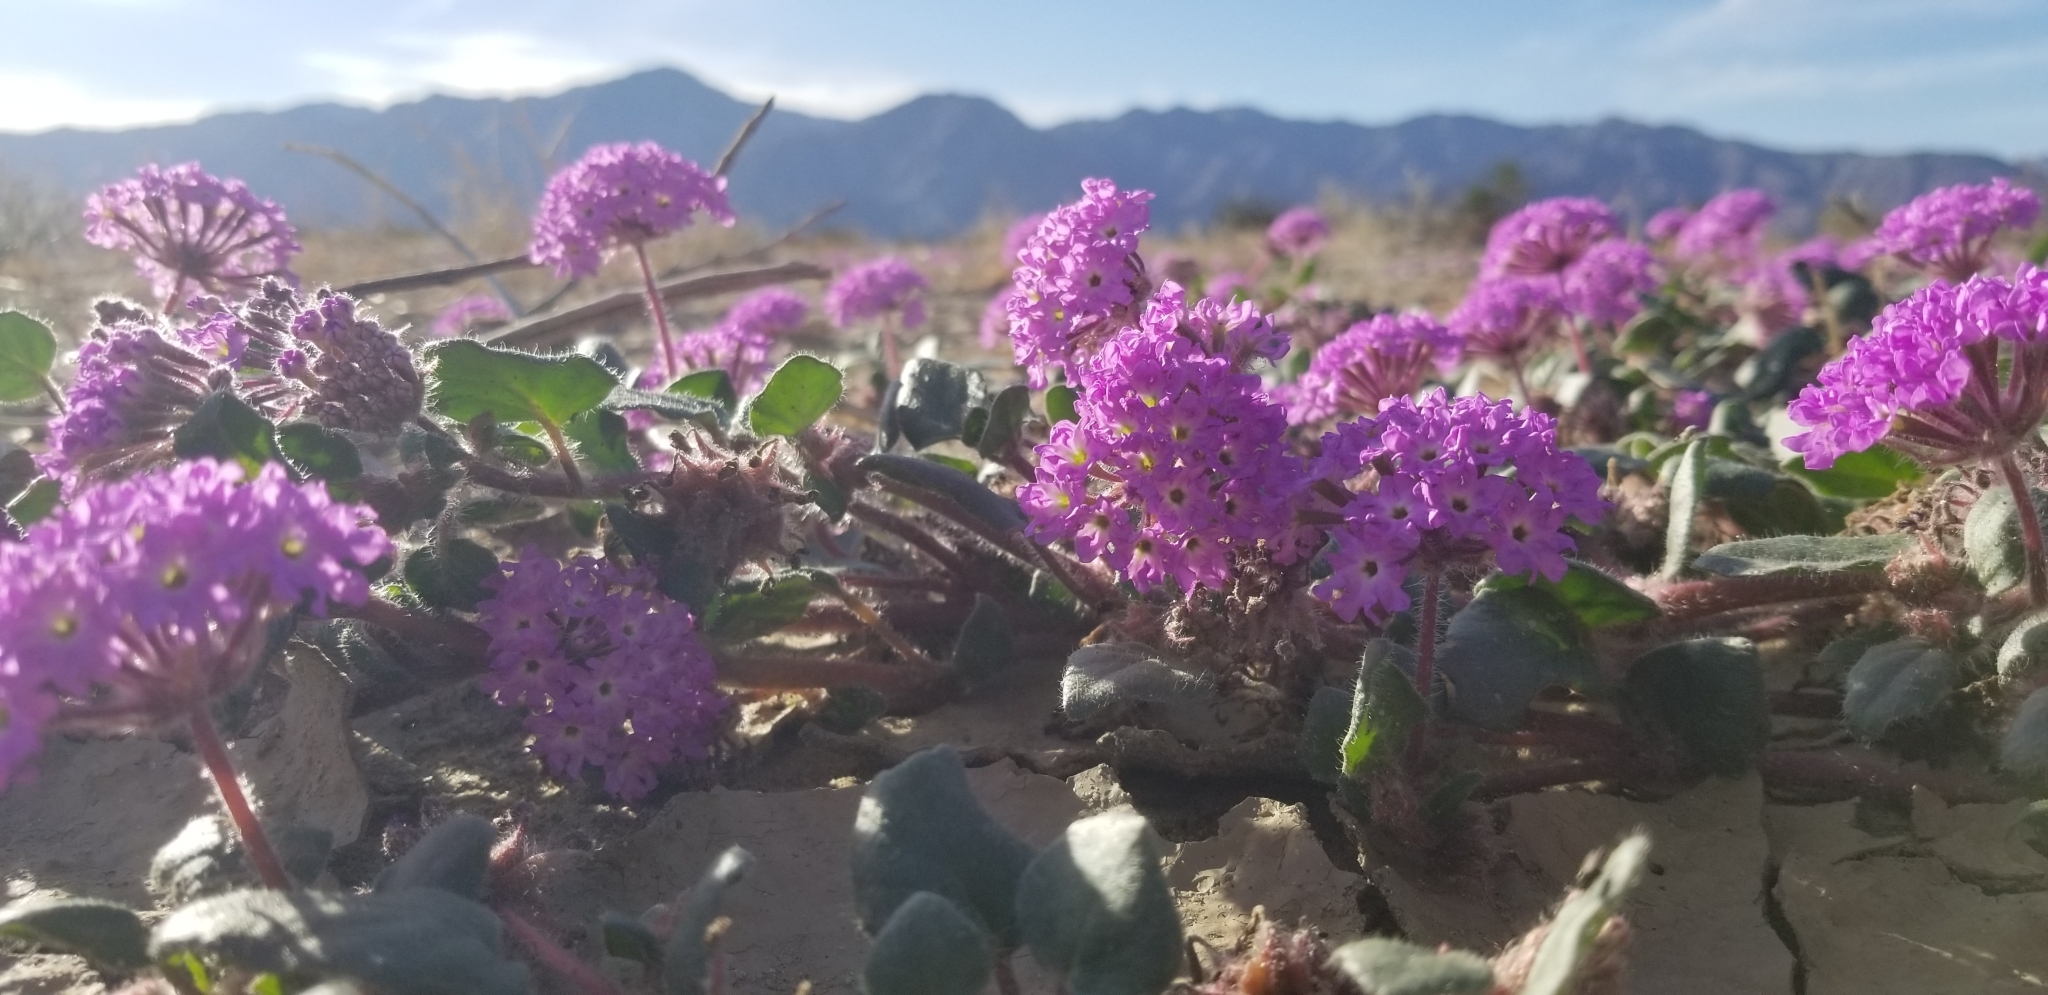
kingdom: Plantae
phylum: Tracheophyta
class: Magnoliopsida
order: Caryophyllales
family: Nyctaginaceae
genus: Abronia
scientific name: Abronia villosa
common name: Desert sand-verbena
